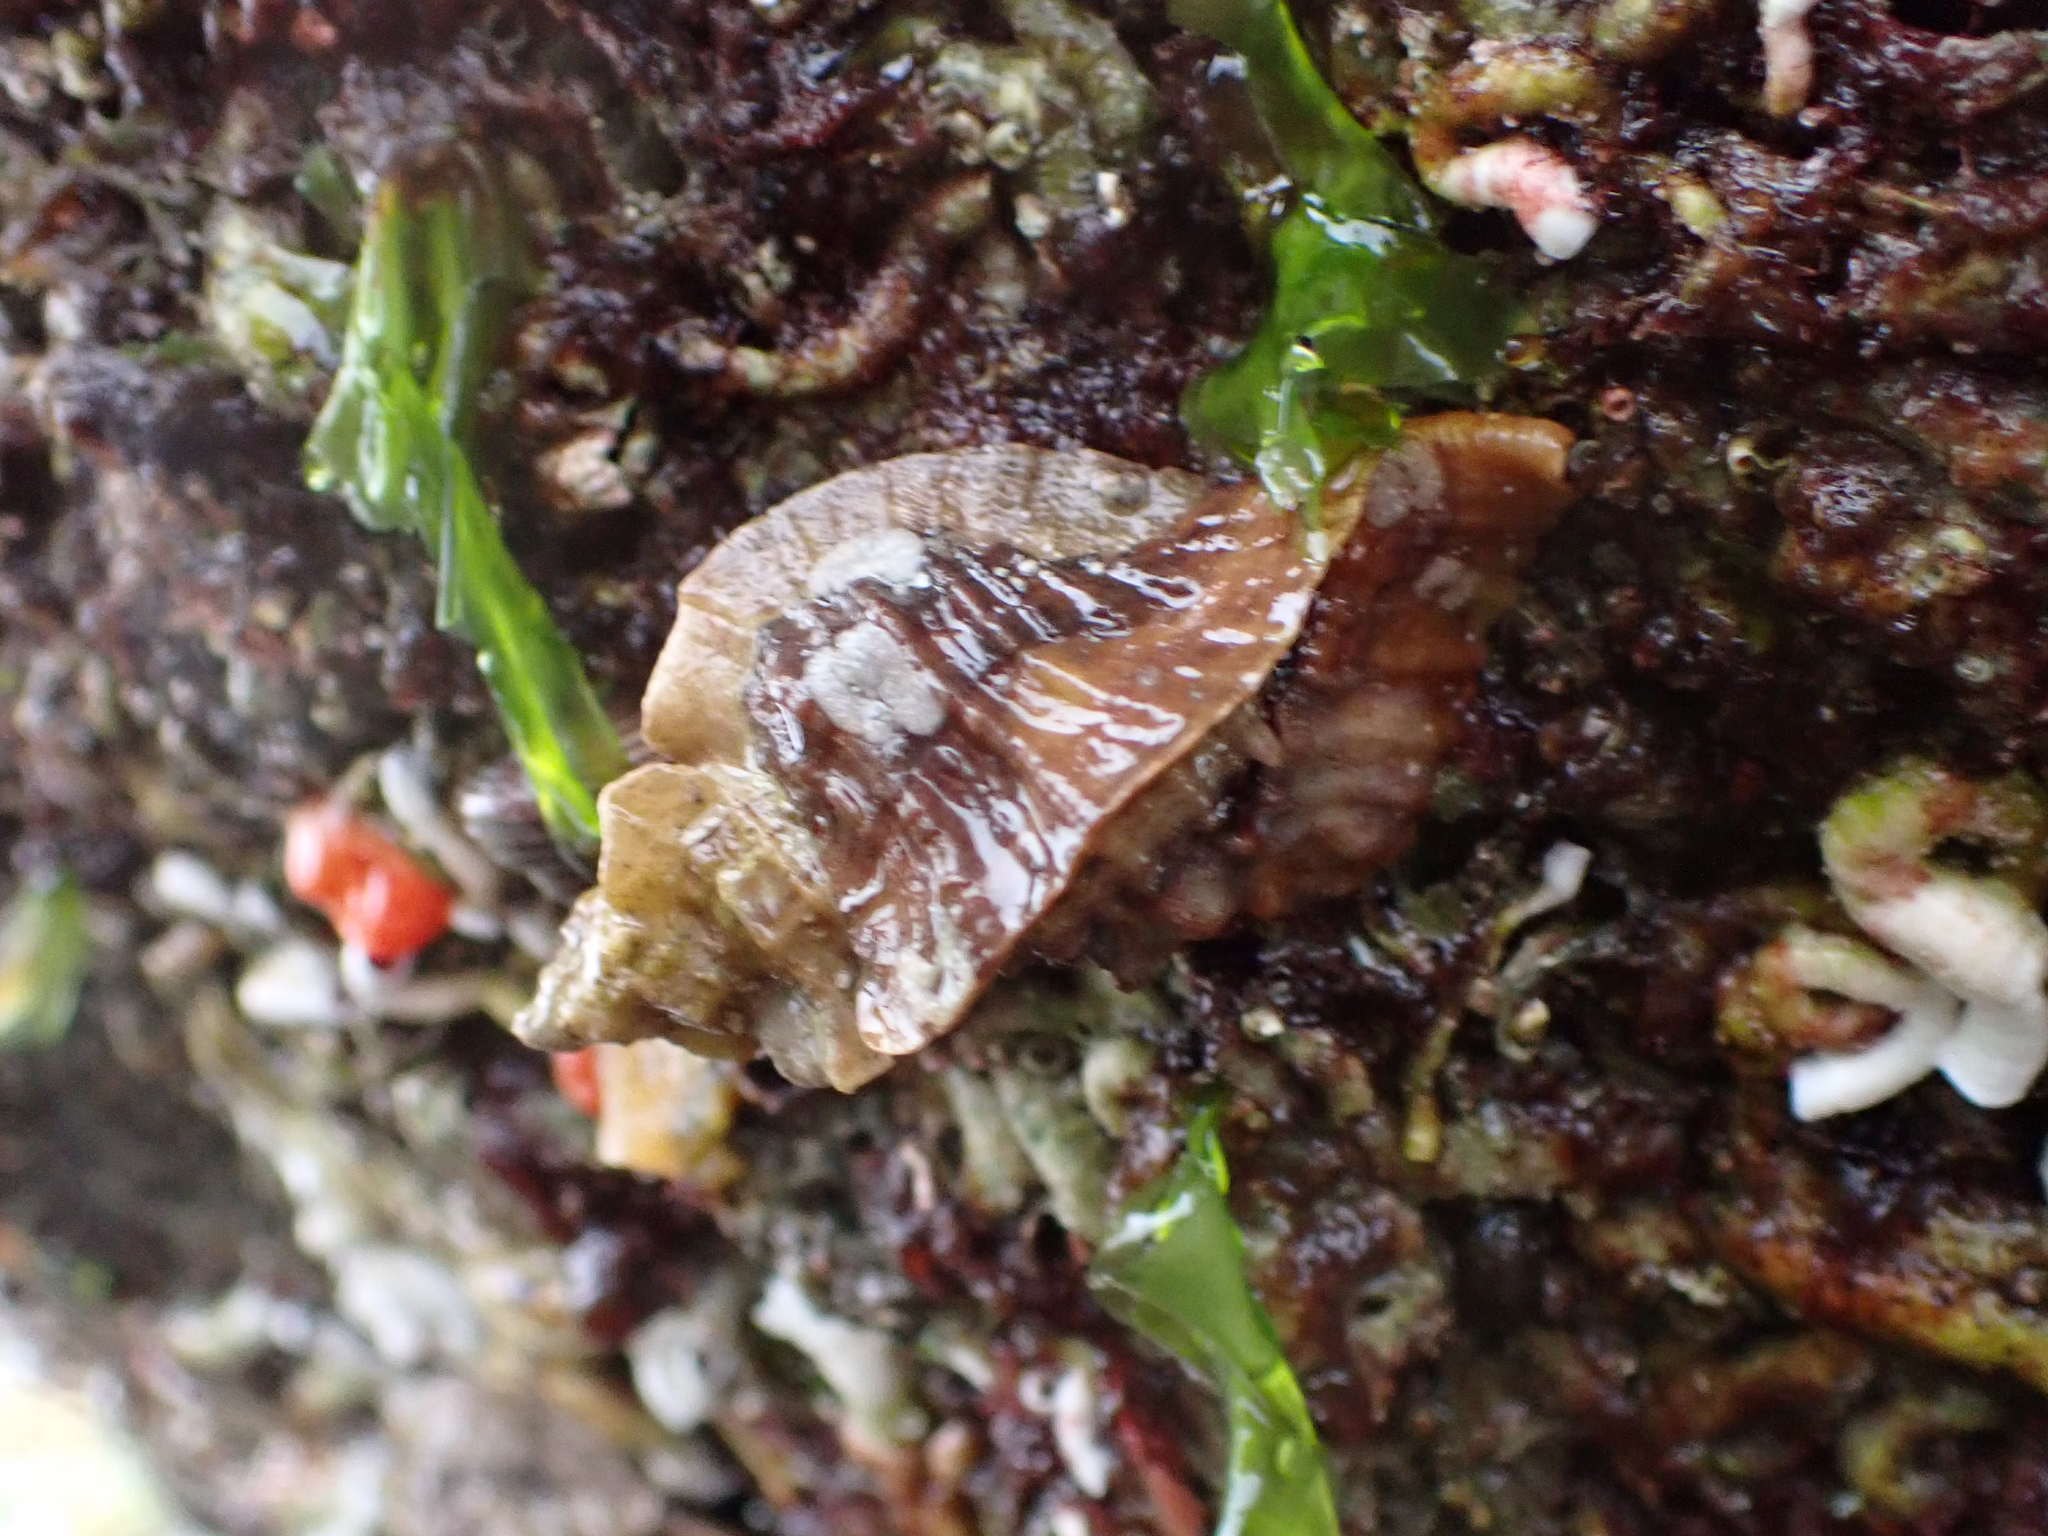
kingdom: Animalia
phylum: Mollusca
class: Gastropoda
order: Neogastropoda
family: Muricidae
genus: Ceratostoma
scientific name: Ceratostoma foliatum
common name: Foliate thorn purpura
